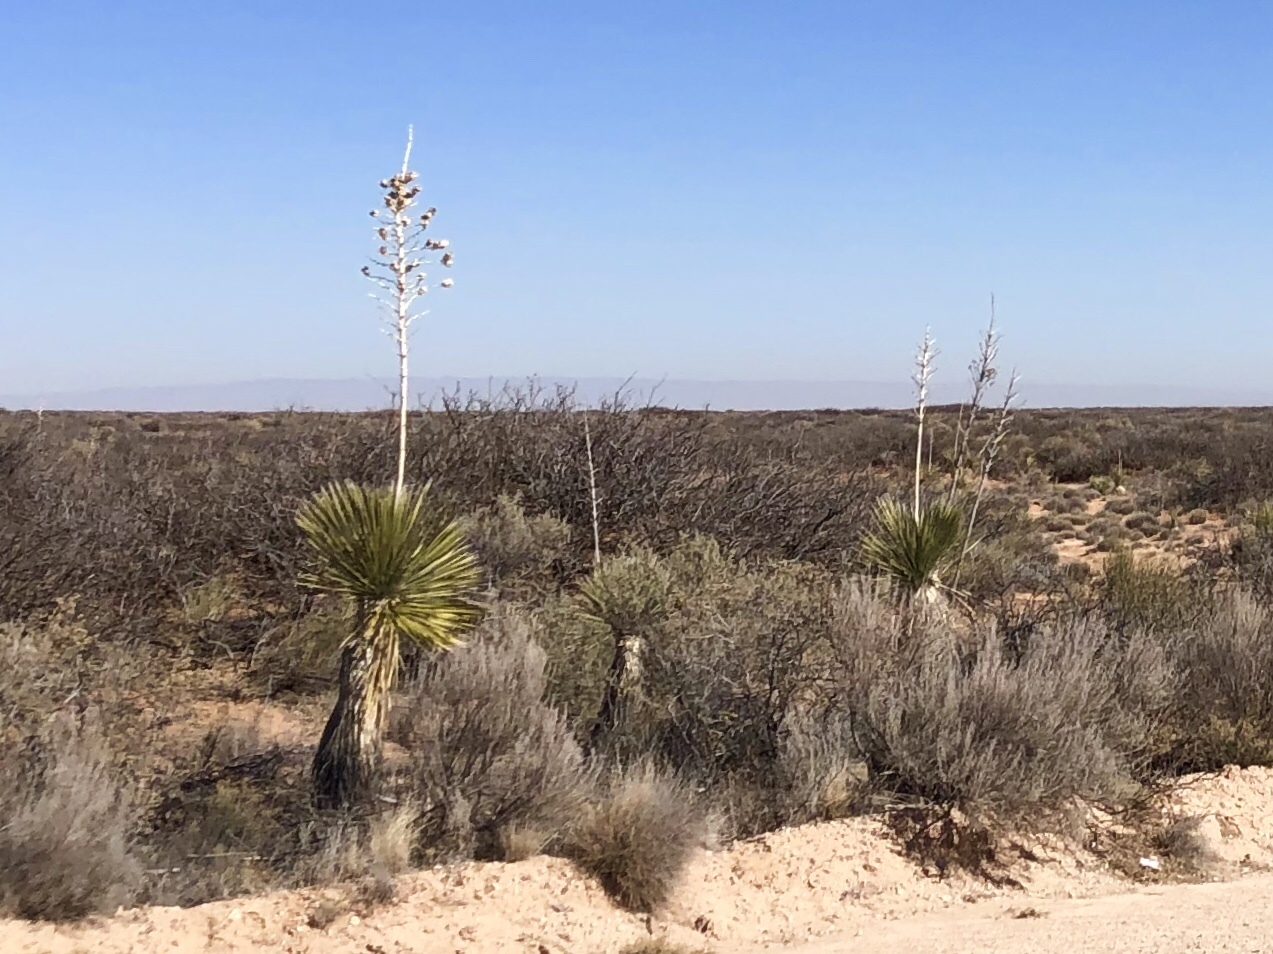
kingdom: Plantae
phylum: Tracheophyta
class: Liliopsida
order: Asparagales
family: Asparagaceae
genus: Yucca
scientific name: Yucca elata
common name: Palmella
